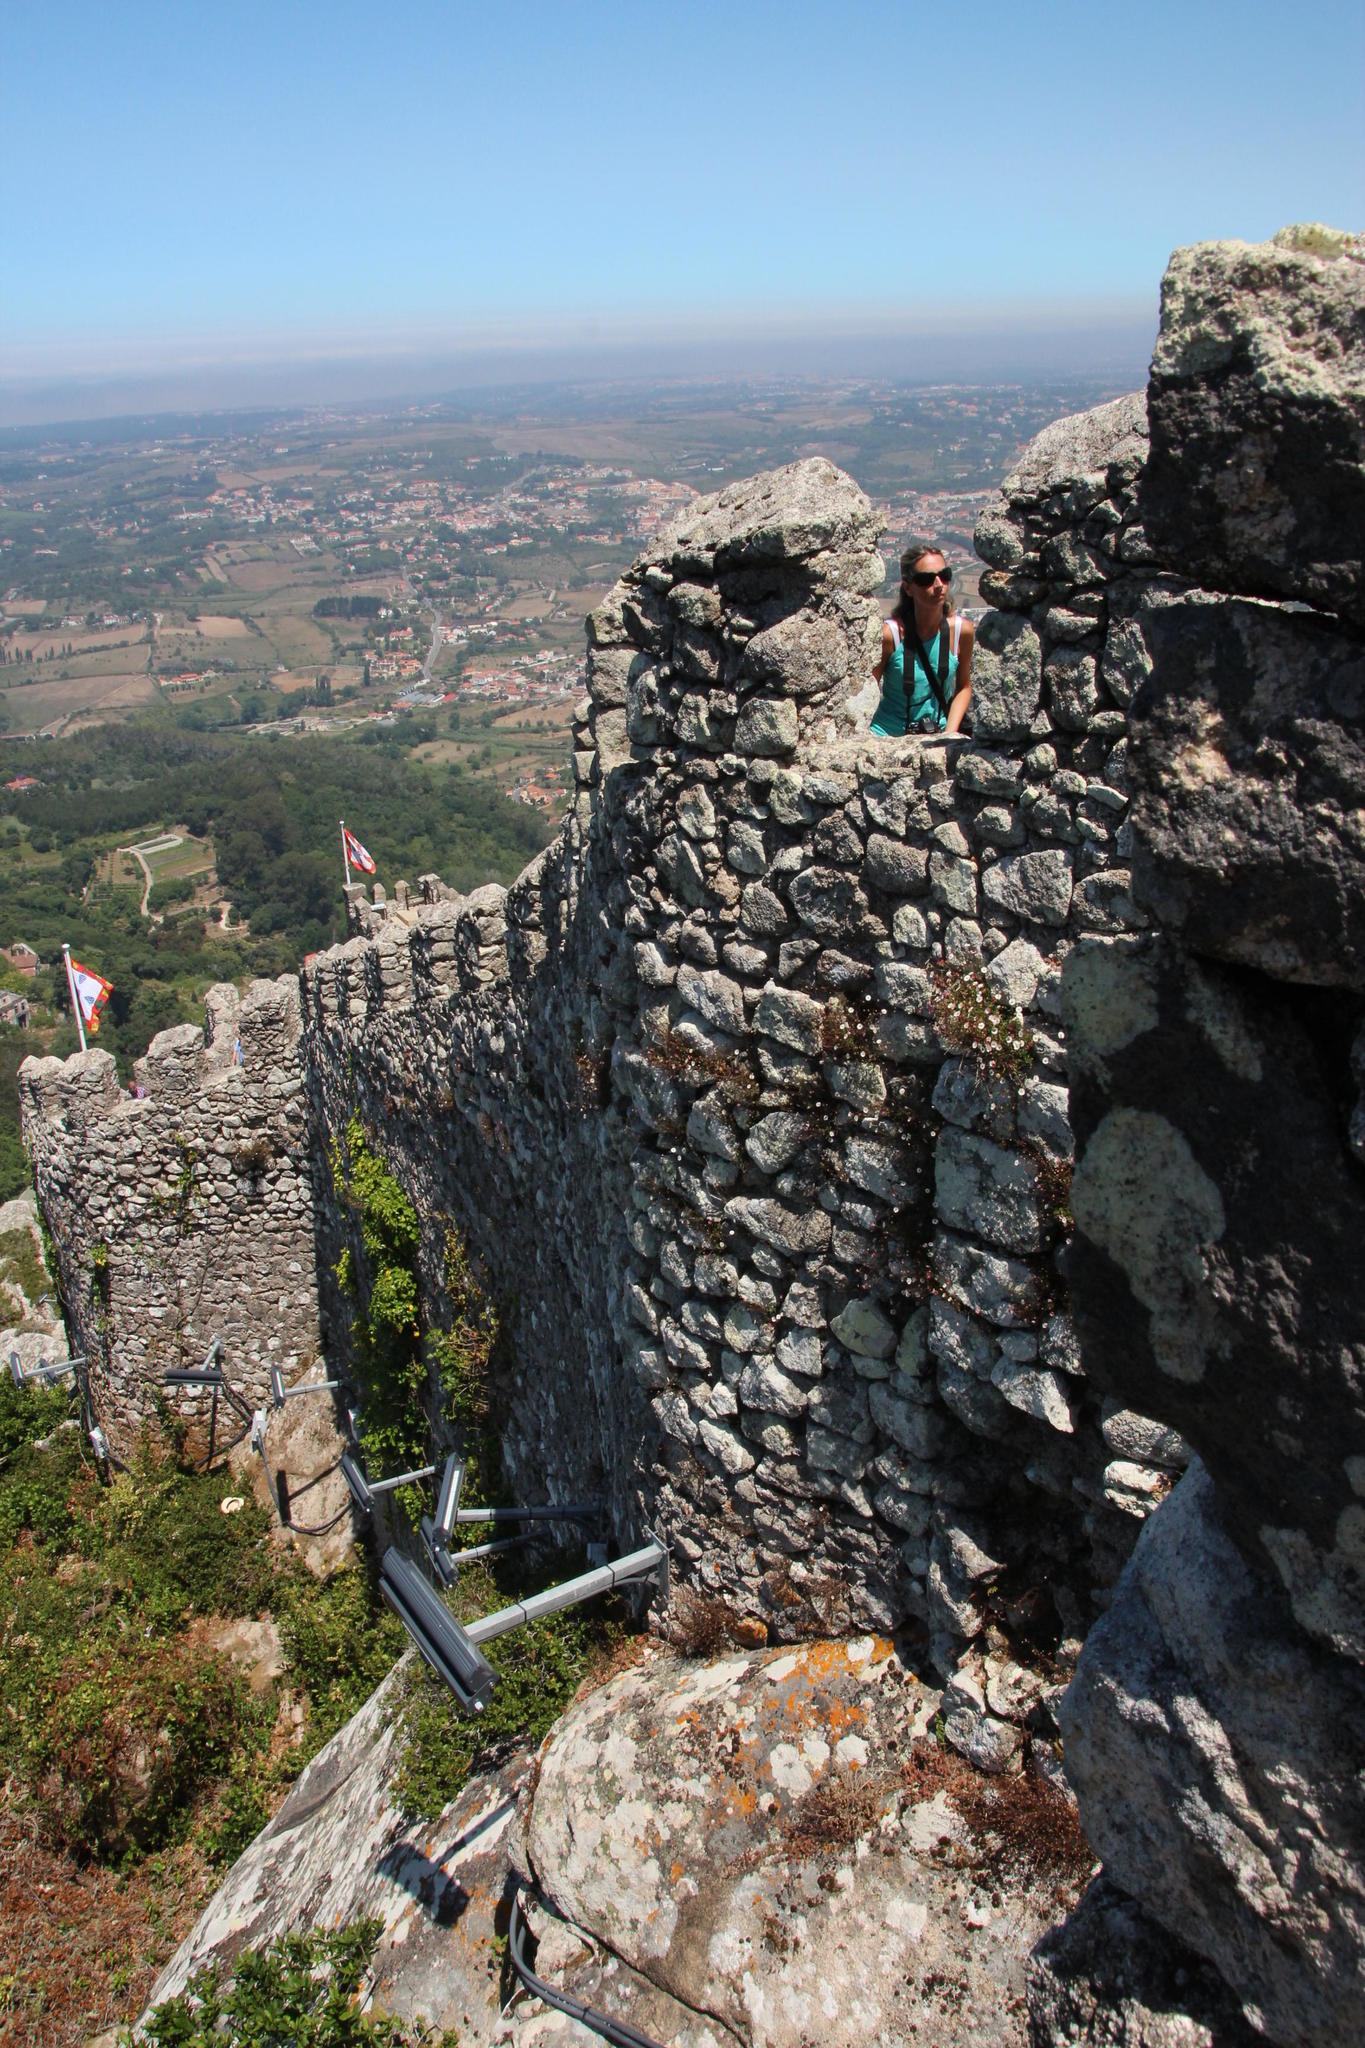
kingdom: Plantae
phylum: Tracheophyta
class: Magnoliopsida
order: Asterales
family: Asteraceae
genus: Erigeron
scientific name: Erigeron karvinskianus
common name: Mexican fleabane
